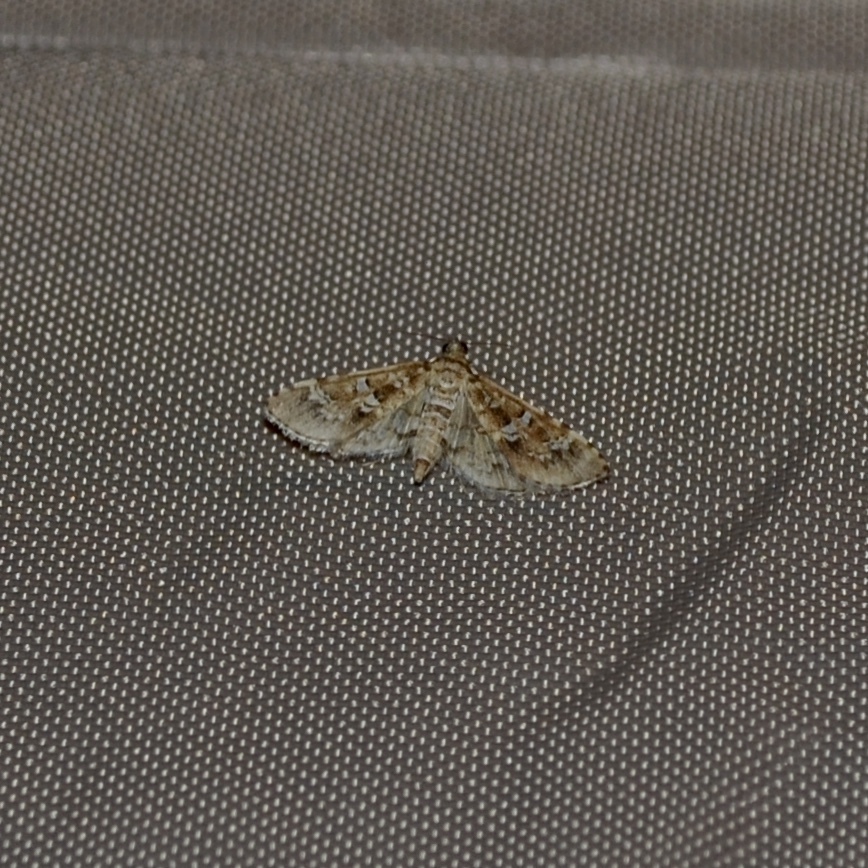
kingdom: Animalia
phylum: Arthropoda
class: Insecta
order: Lepidoptera
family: Crambidae
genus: Samea
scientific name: Samea multiplicalis
